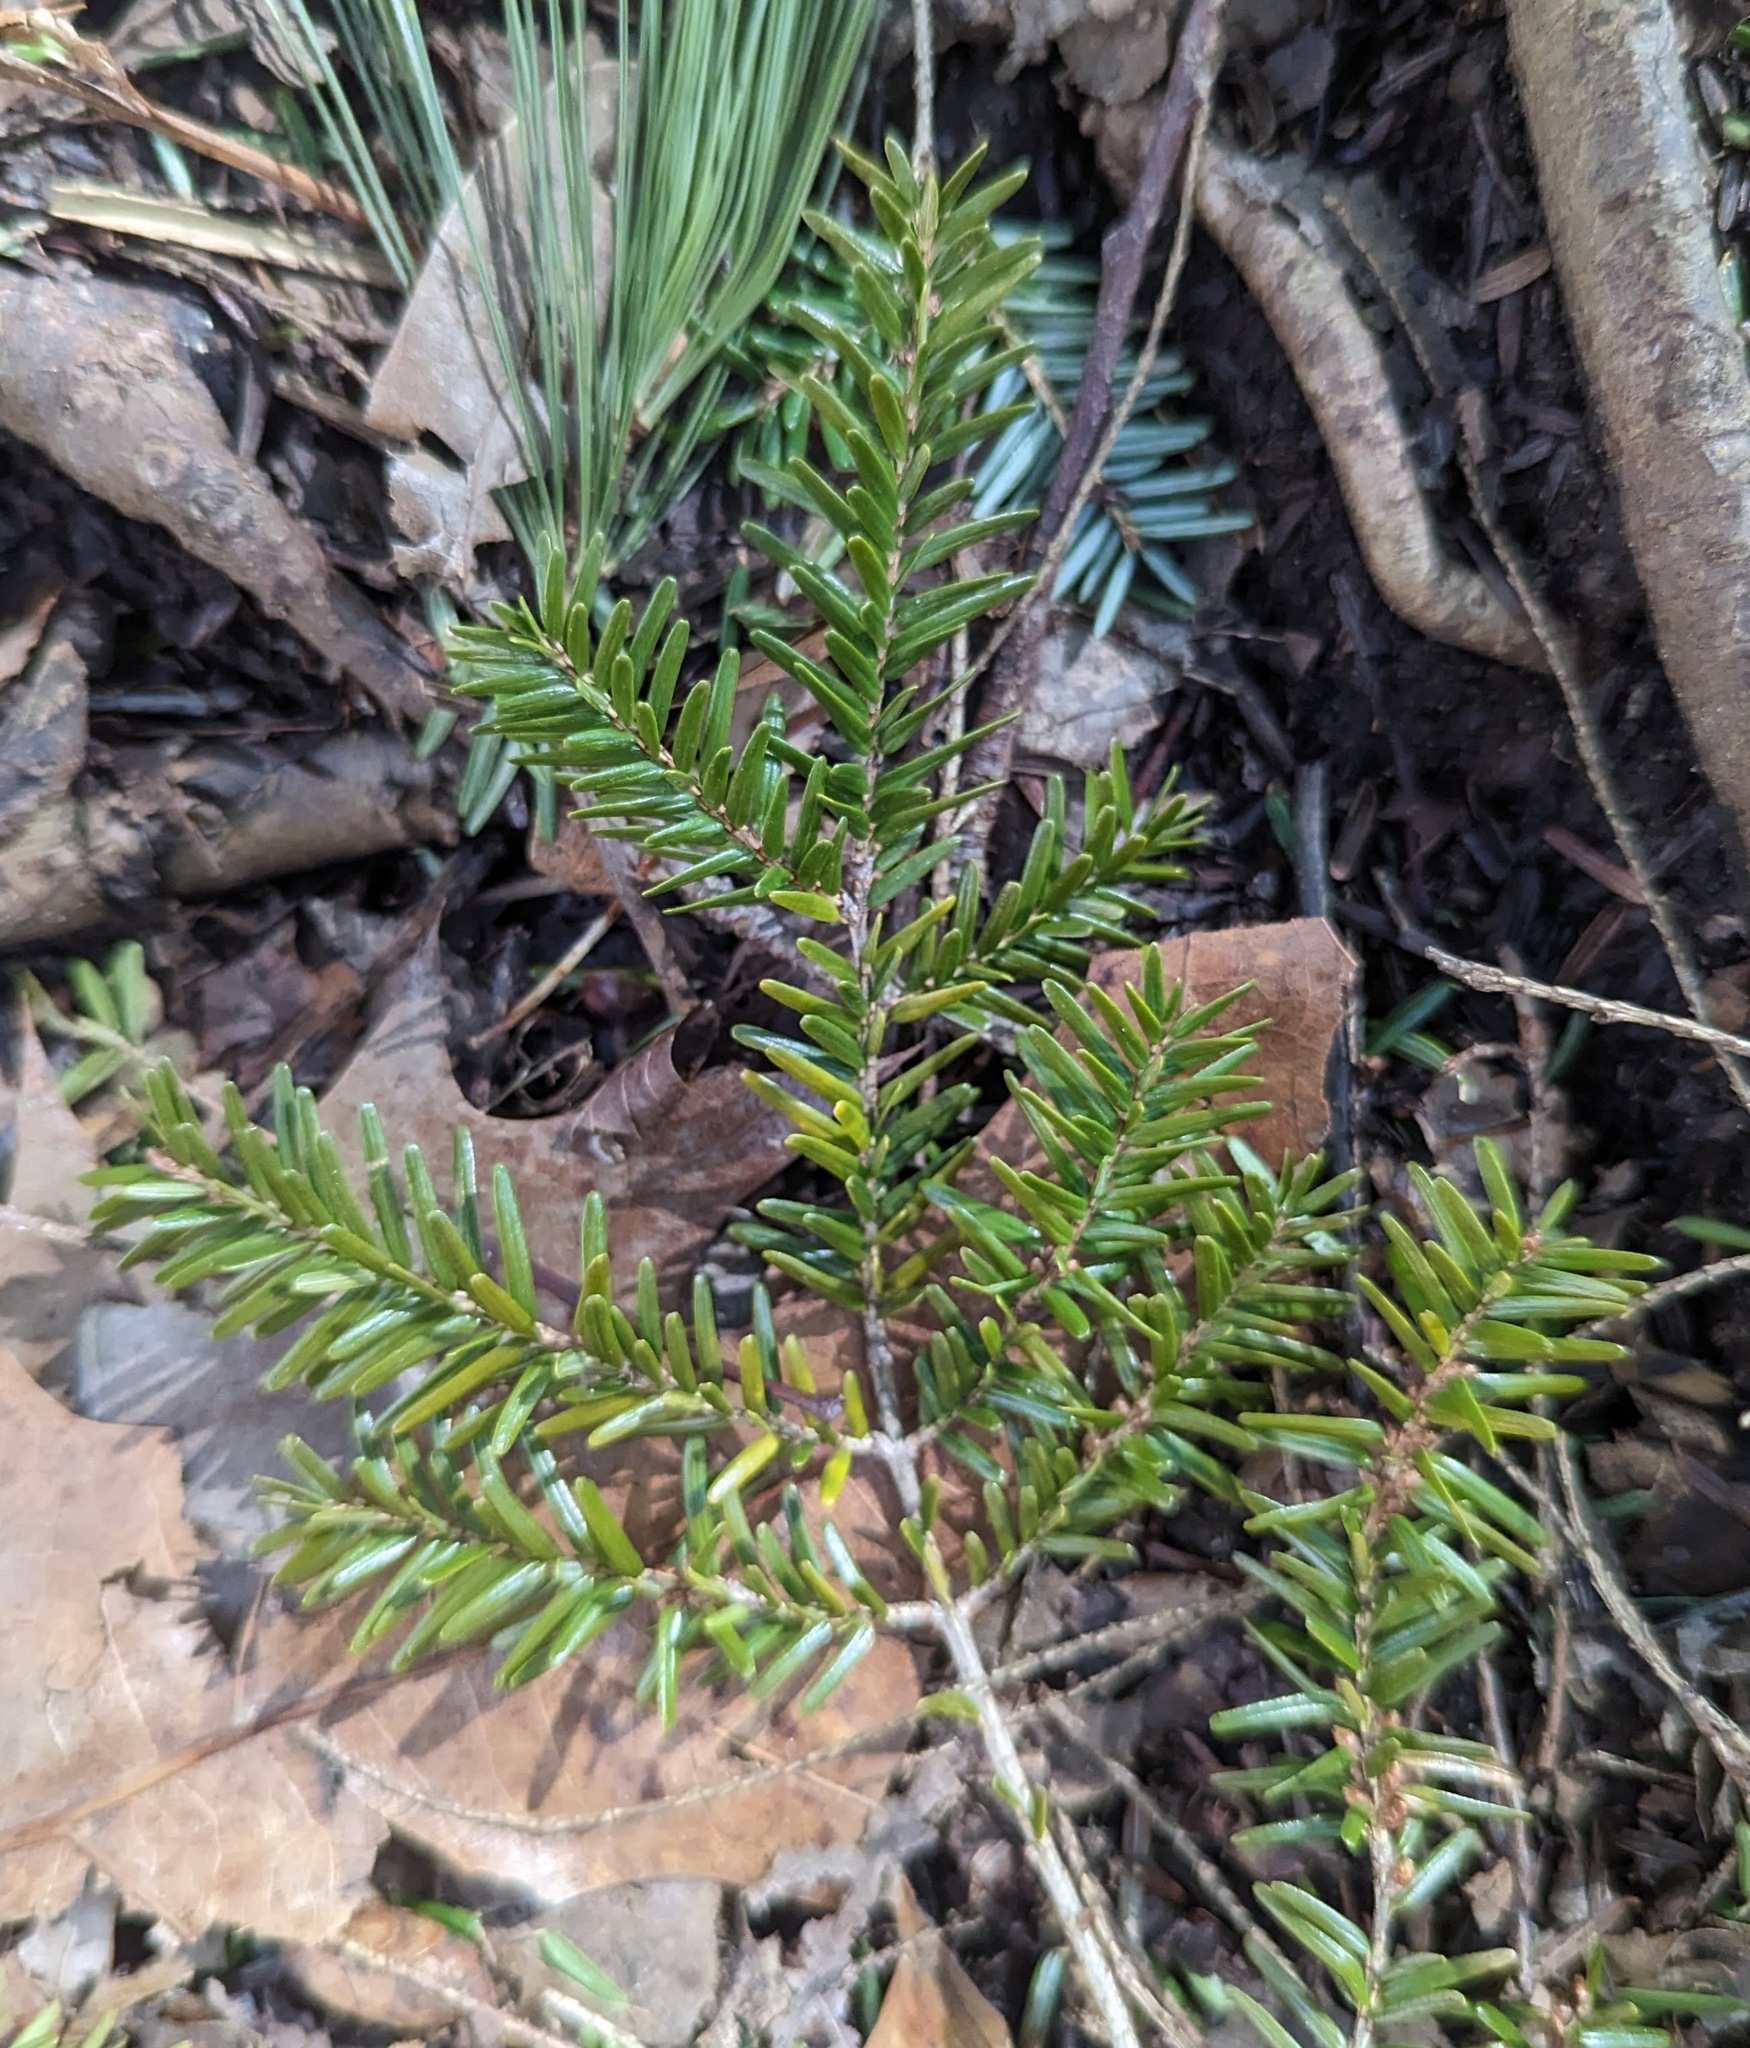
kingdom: Plantae
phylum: Tracheophyta
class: Pinopsida
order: Pinales
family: Pinaceae
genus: Tsuga
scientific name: Tsuga caroliniana
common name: Carolina hemlock
